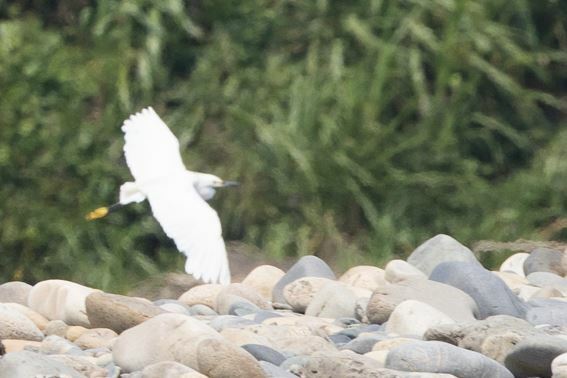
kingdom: Animalia
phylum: Chordata
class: Aves
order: Pelecaniformes
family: Ardeidae
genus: Egretta
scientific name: Egretta thula
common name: Snowy egret
